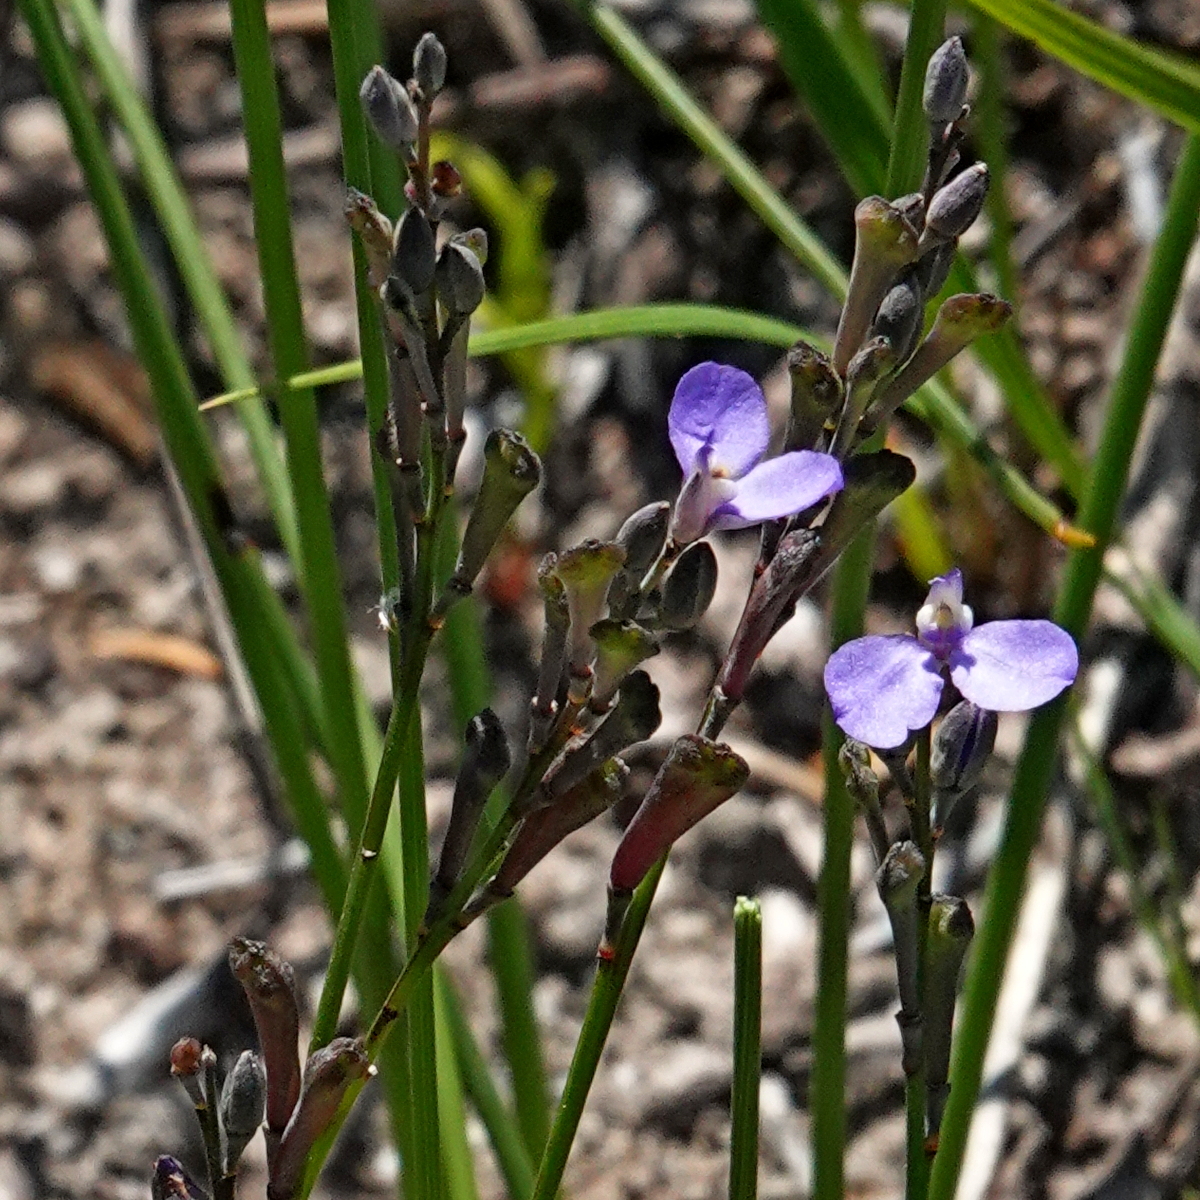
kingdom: Plantae
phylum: Tracheophyta
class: Magnoliopsida
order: Fabales
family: Polygalaceae
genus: Comesperma
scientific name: Comesperma defoliatum
